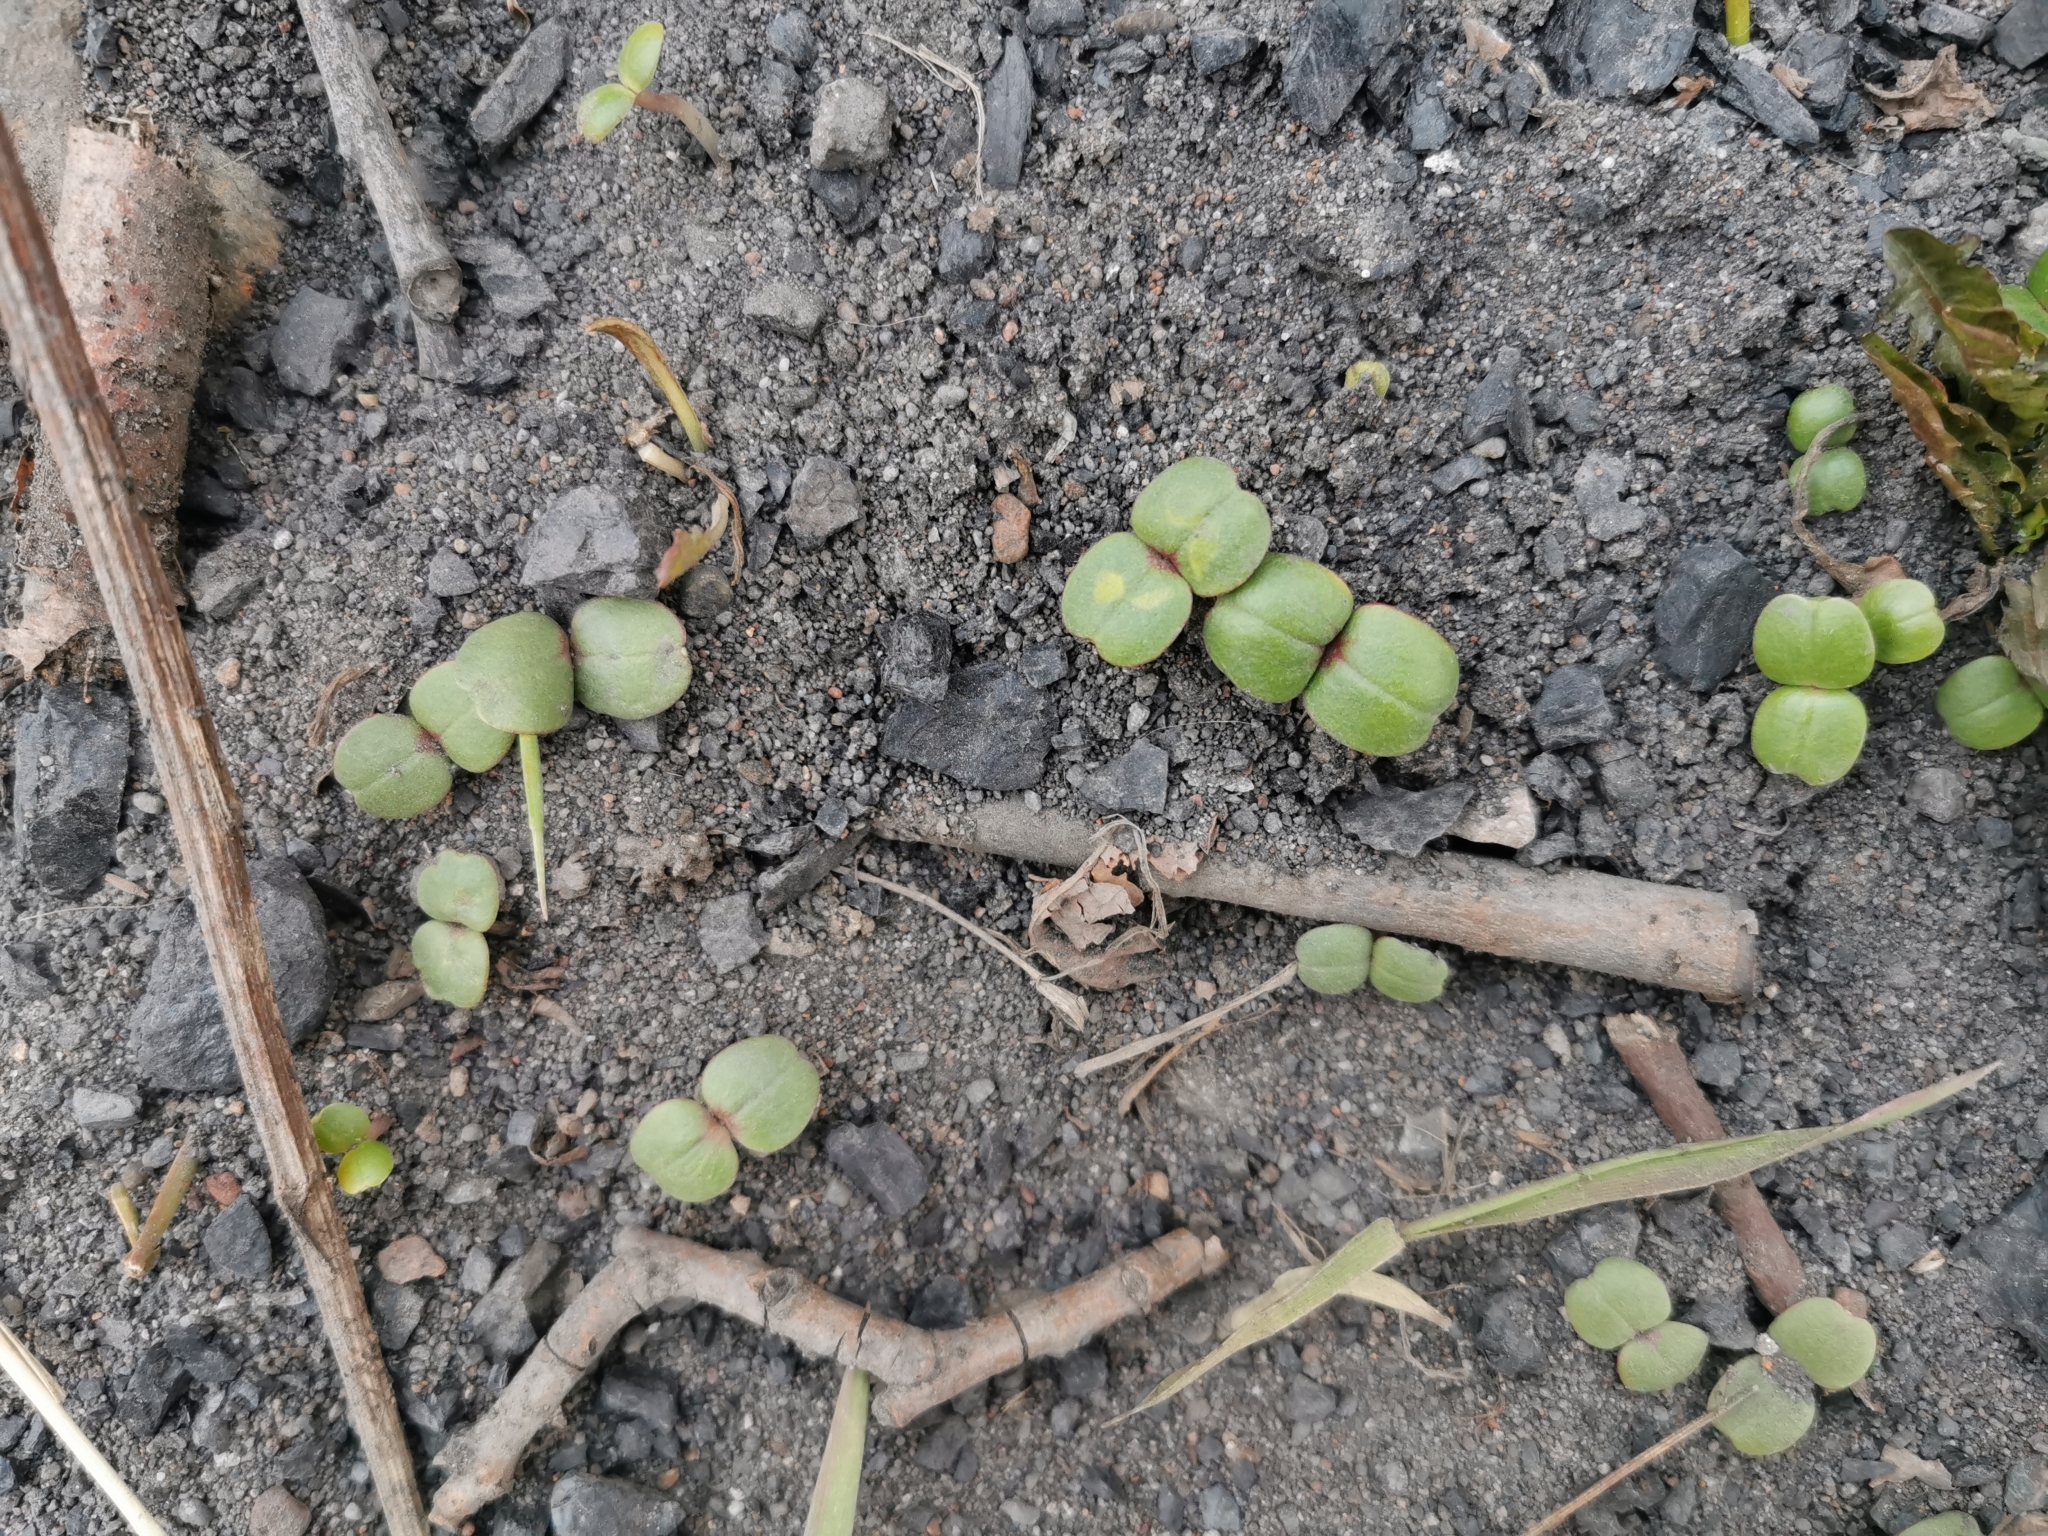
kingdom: Plantae
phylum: Tracheophyta
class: Magnoliopsida
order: Ericales
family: Balsaminaceae
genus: Impatiens
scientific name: Impatiens glandulifera
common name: Himalayan balsam
